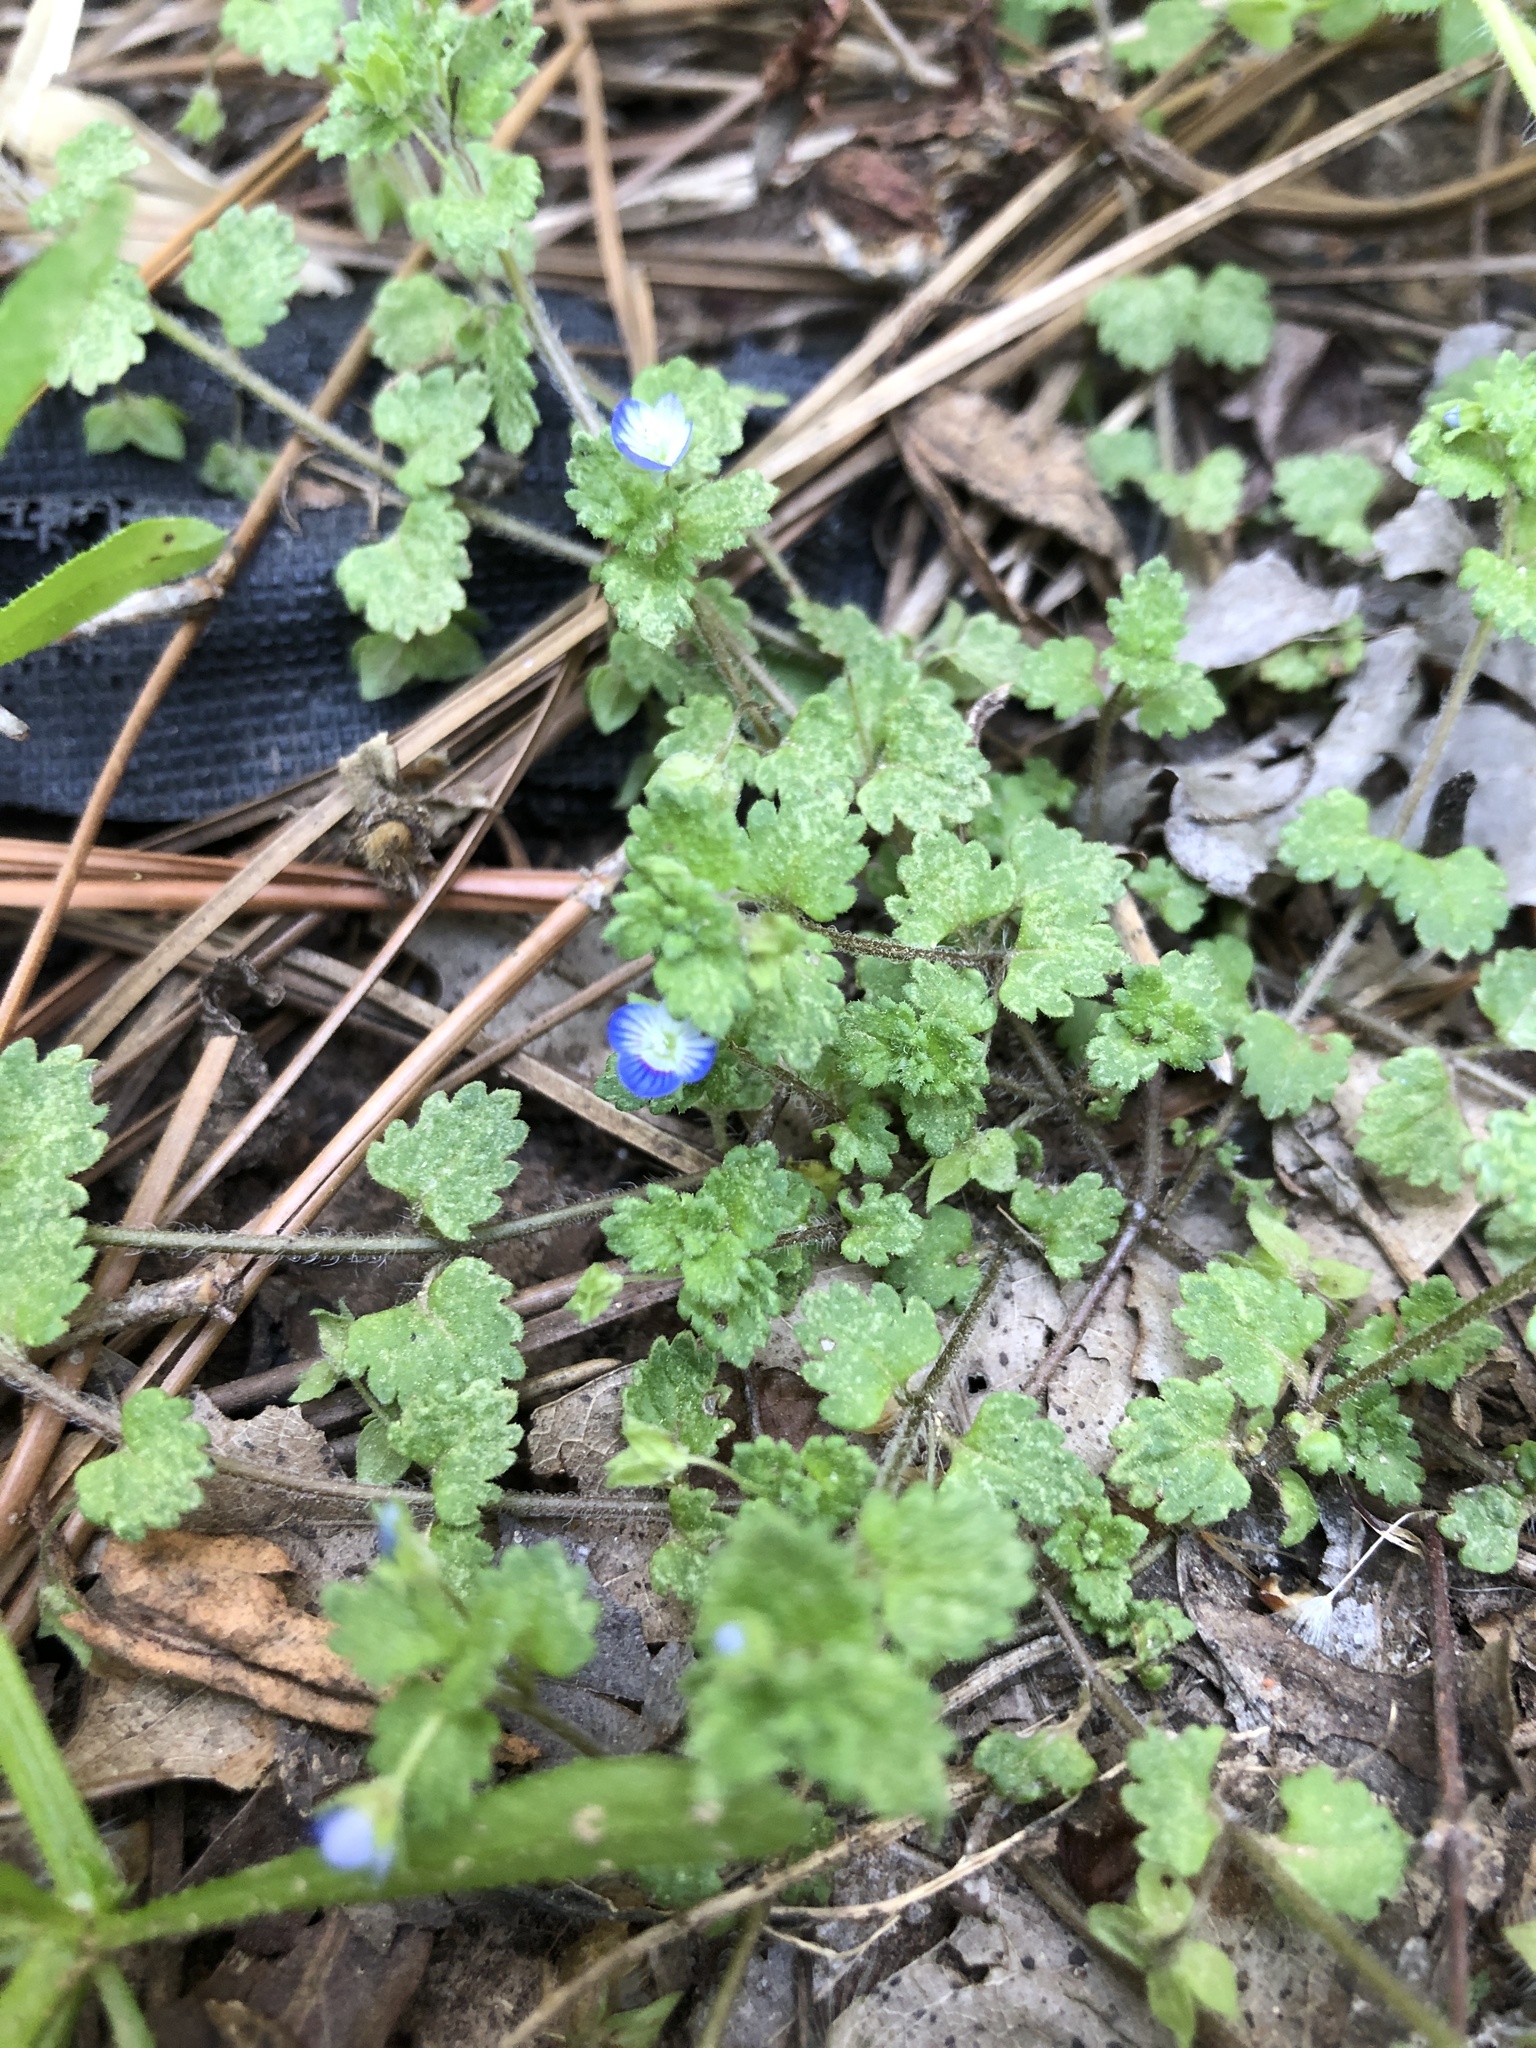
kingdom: Plantae
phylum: Tracheophyta
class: Magnoliopsida
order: Lamiales
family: Plantaginaceae
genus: Veronica
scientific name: Veronica polita
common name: Grey field-speedwell
